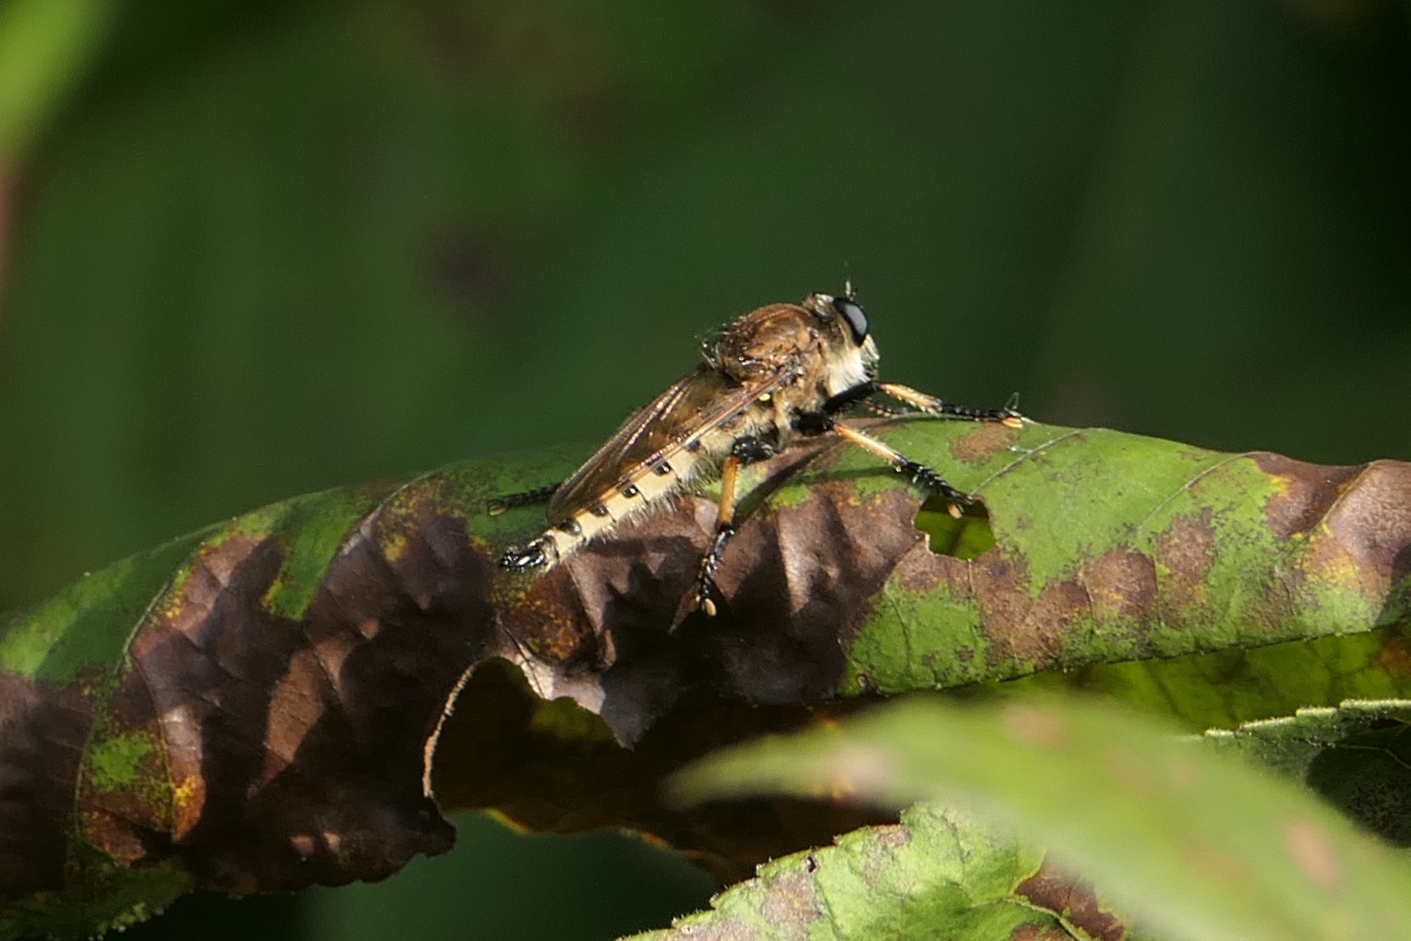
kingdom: Animalia
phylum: Arthropoda
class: Insecta
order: Diptera
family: Asilidae
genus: Promachus
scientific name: Promachus rufipes
